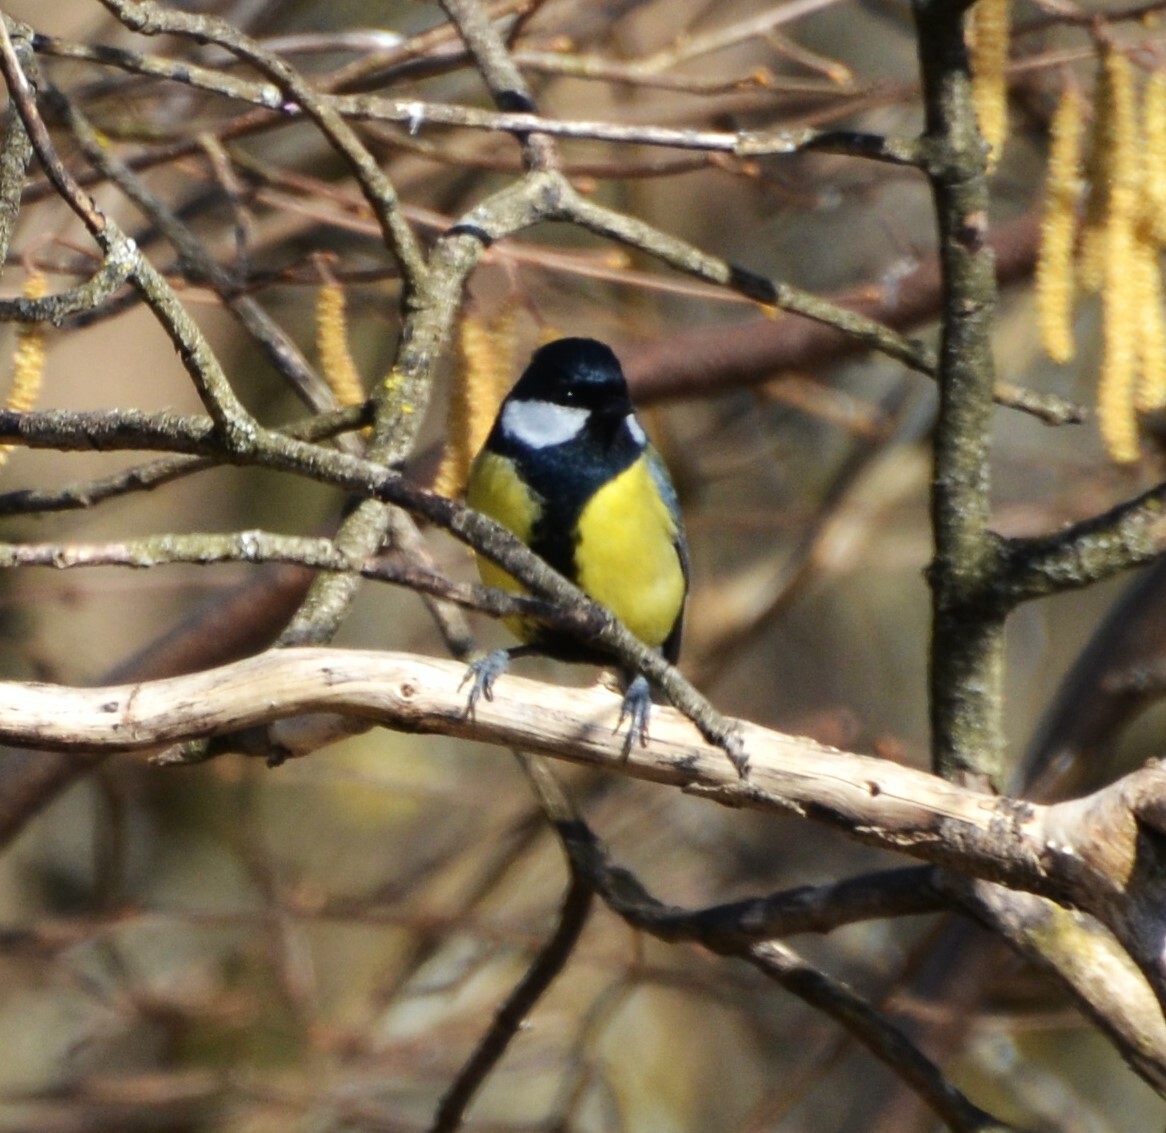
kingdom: Animalia
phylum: Chordata
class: Aves
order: Passeriformes
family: Paridae
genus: Parus
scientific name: Parus major
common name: Great tit
